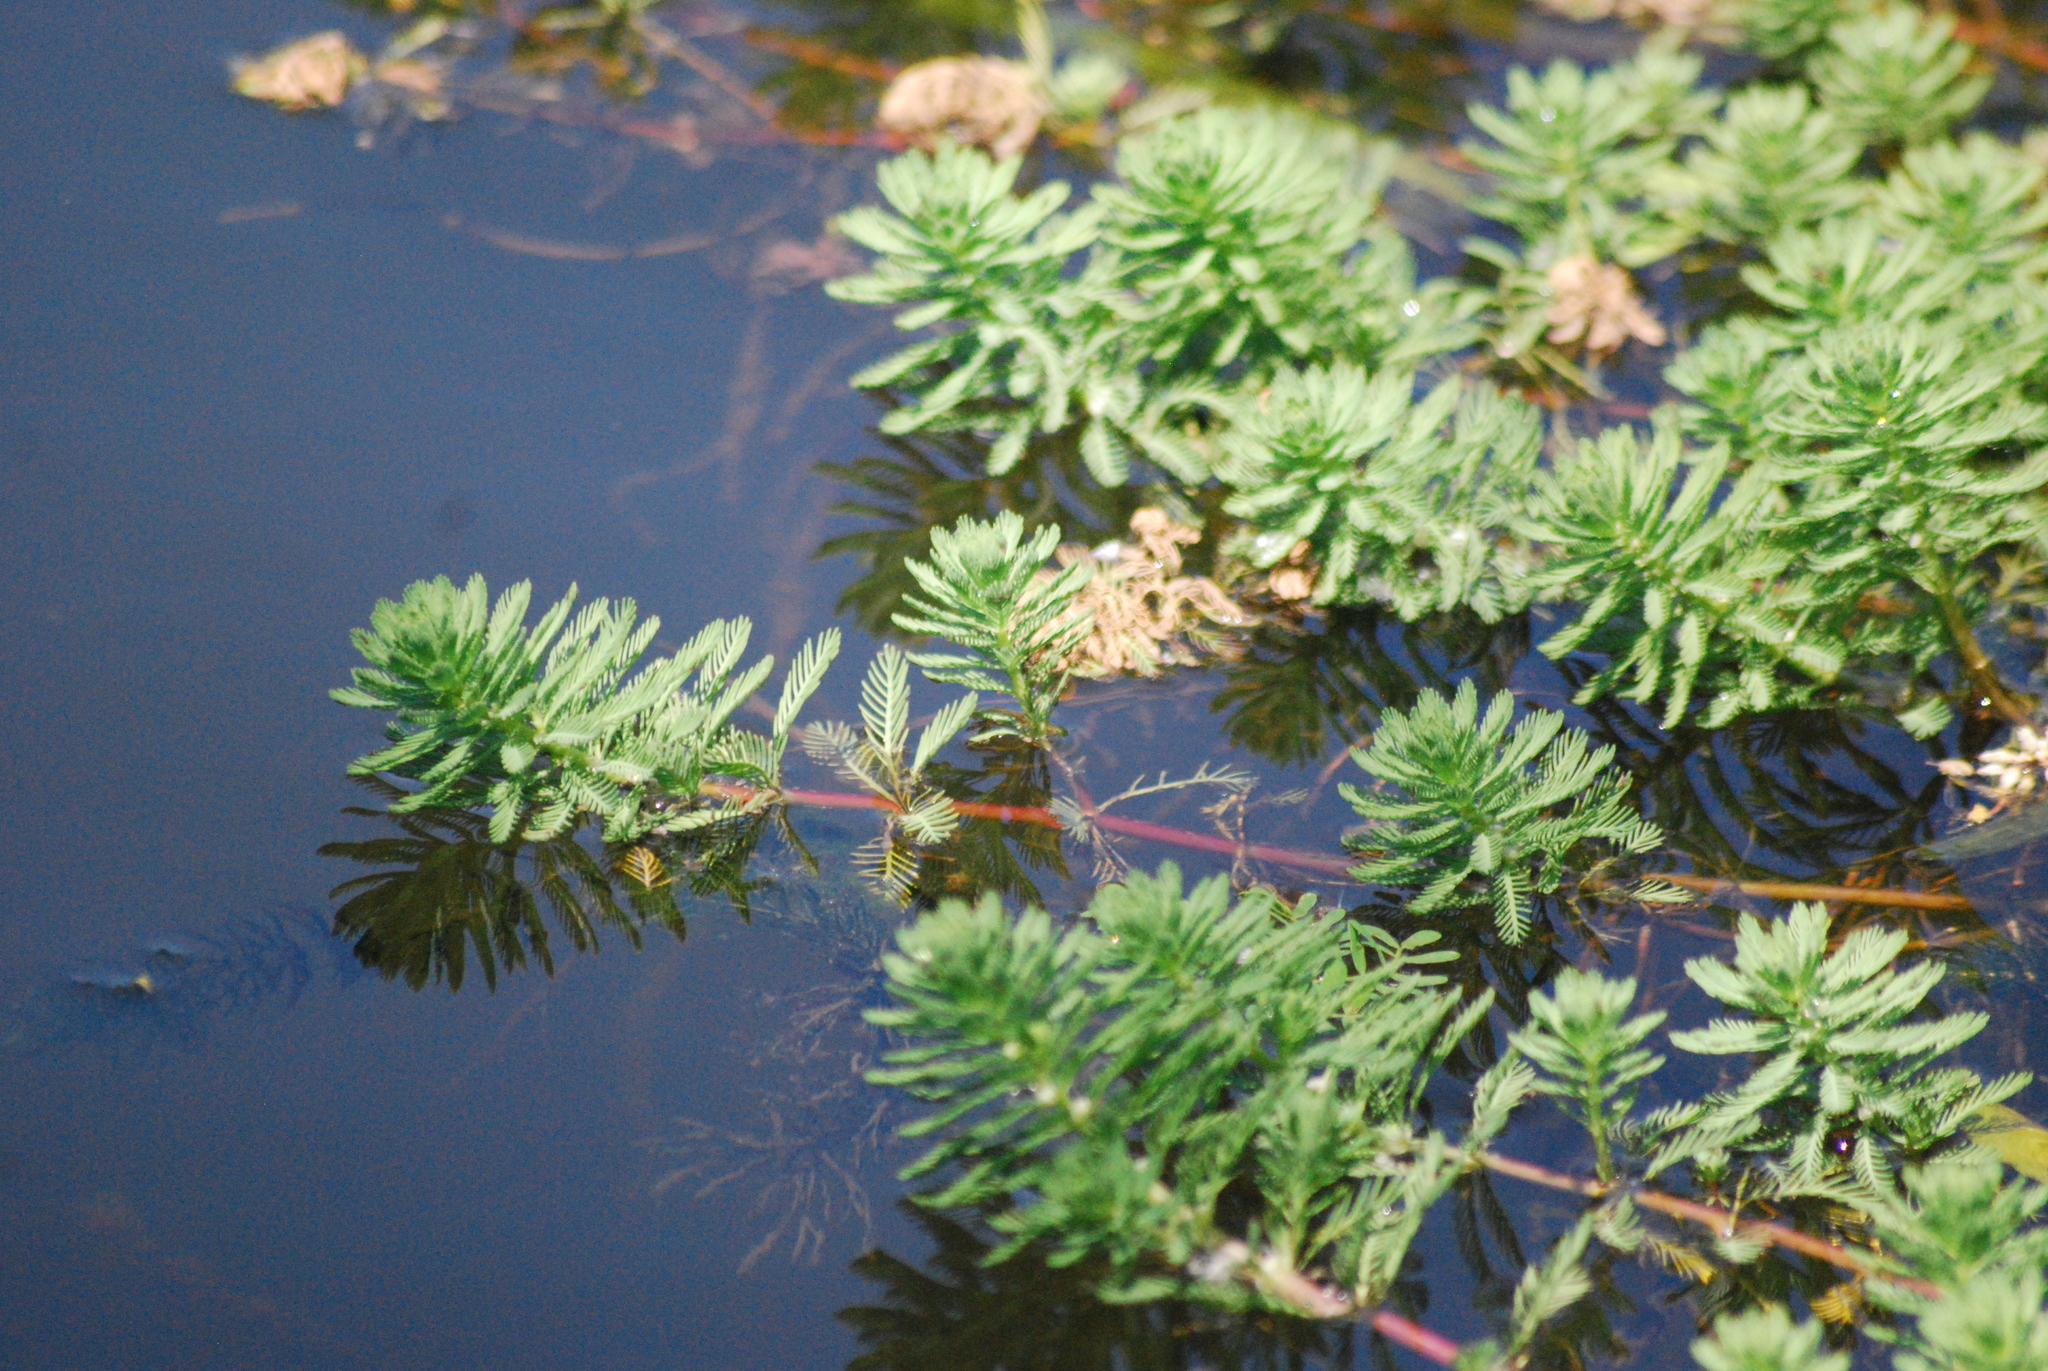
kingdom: Plantae
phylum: Tracheophyta
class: Magnoliopsida
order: Saxifragales
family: Haloragaceae
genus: Myriophyllum
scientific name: Myriophyllum aquaticum
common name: Parrot's feather
